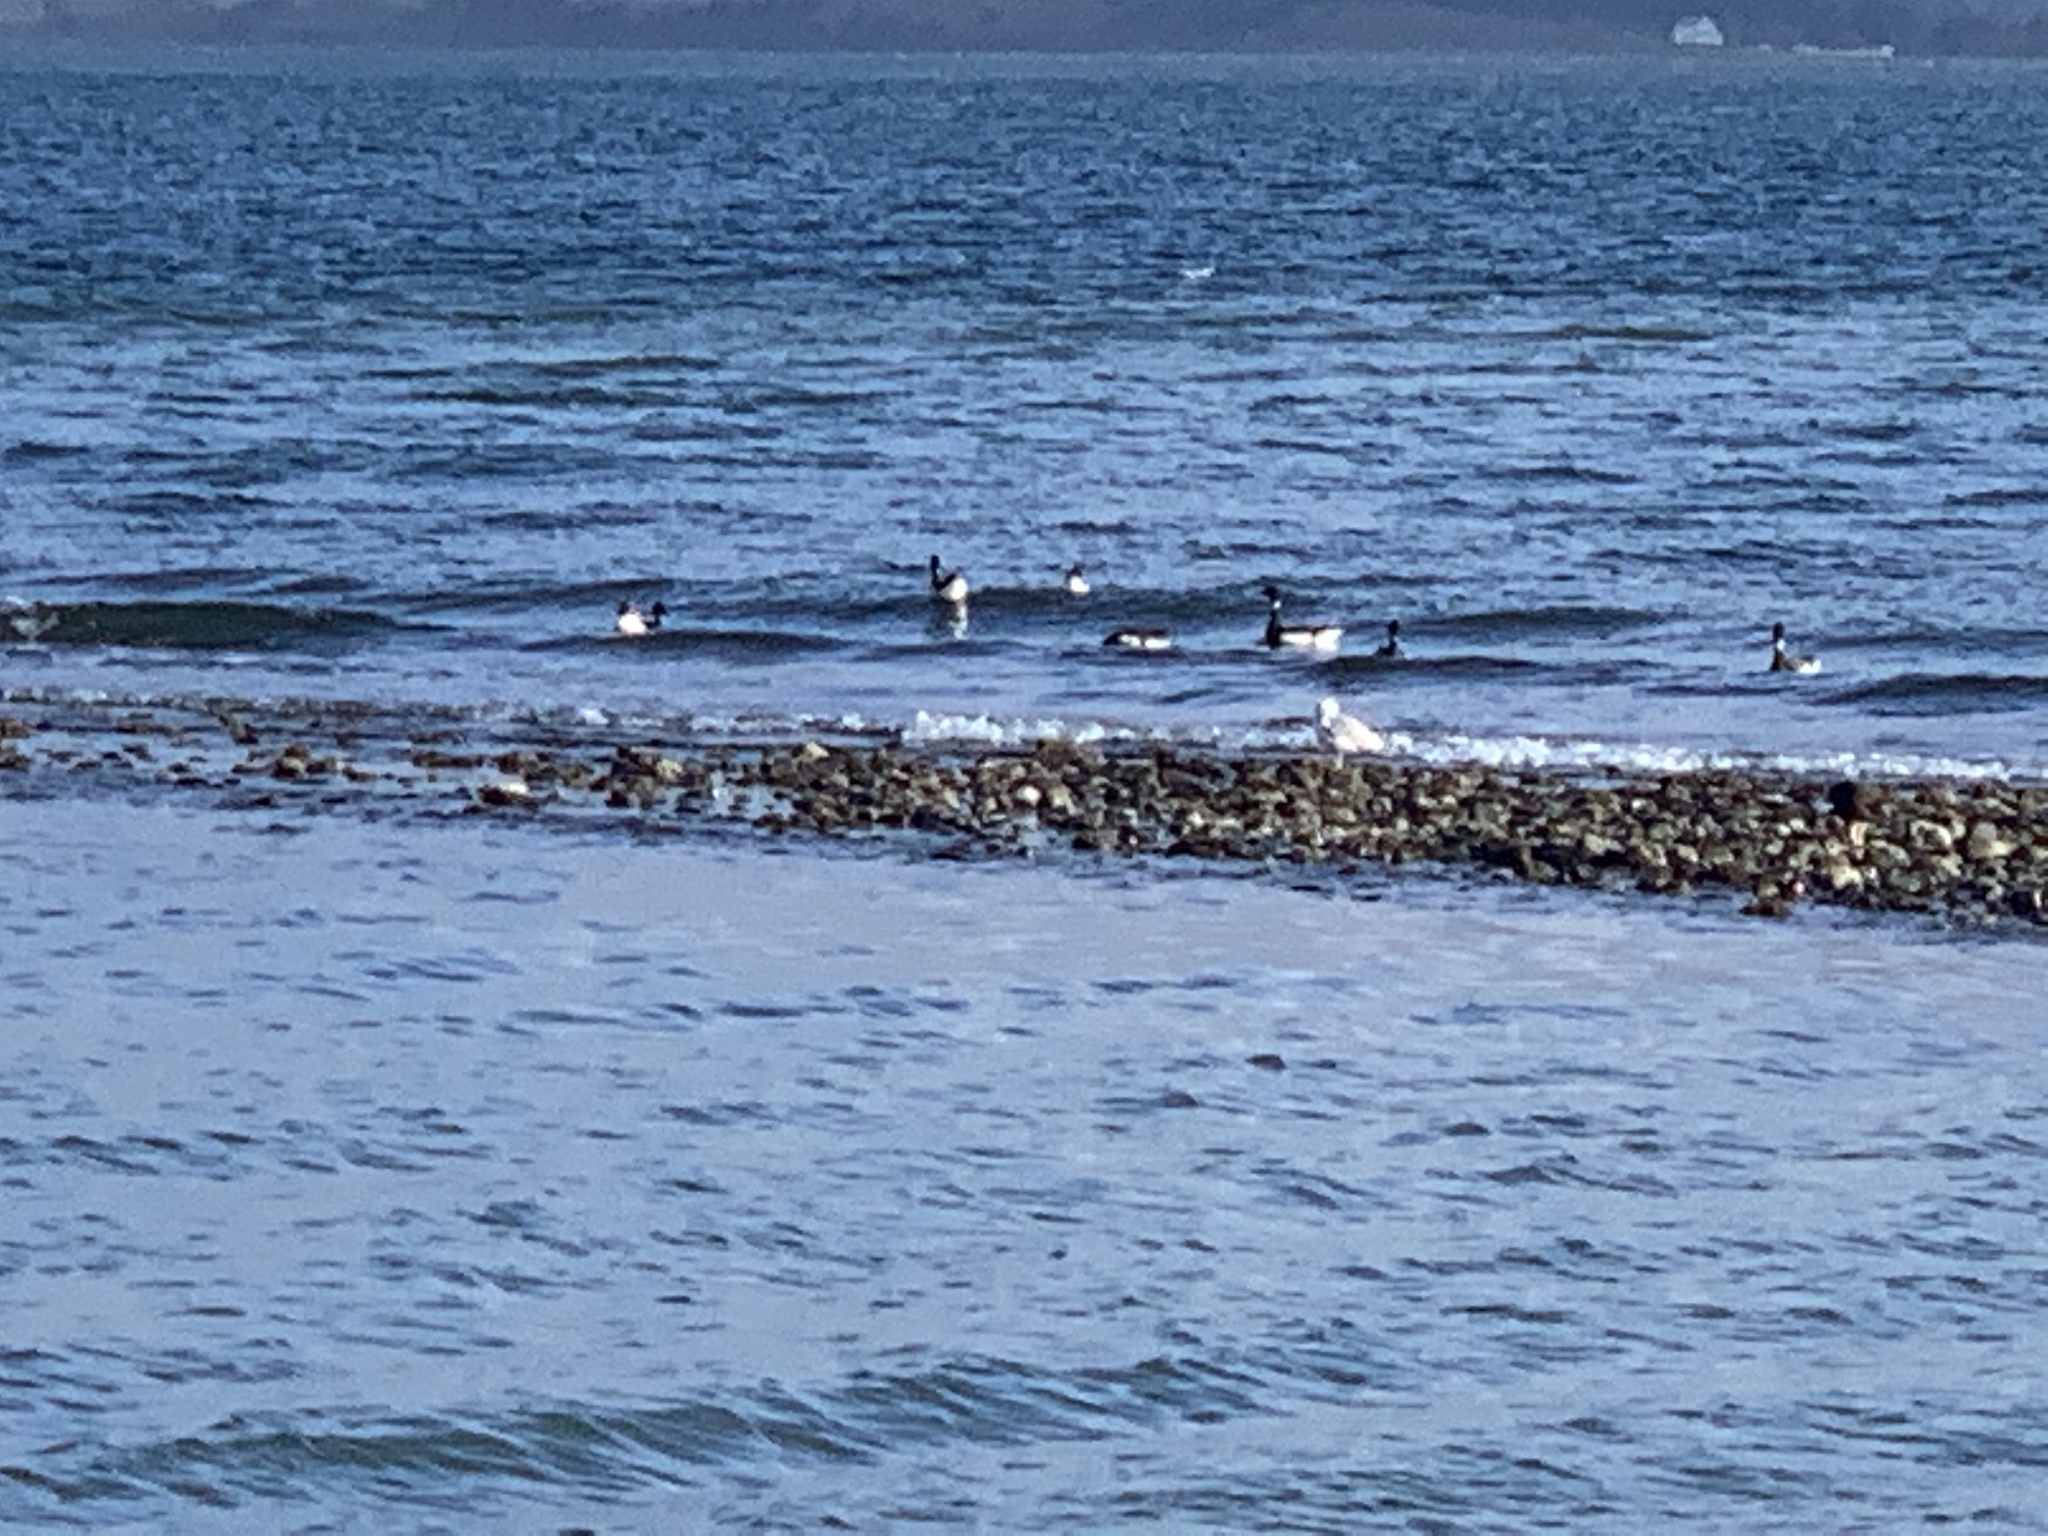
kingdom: Animalia
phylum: Chordata
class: Aves
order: Anseriformes
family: Anatidae
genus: Branta
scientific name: Branta bernicla
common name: Brant goose
